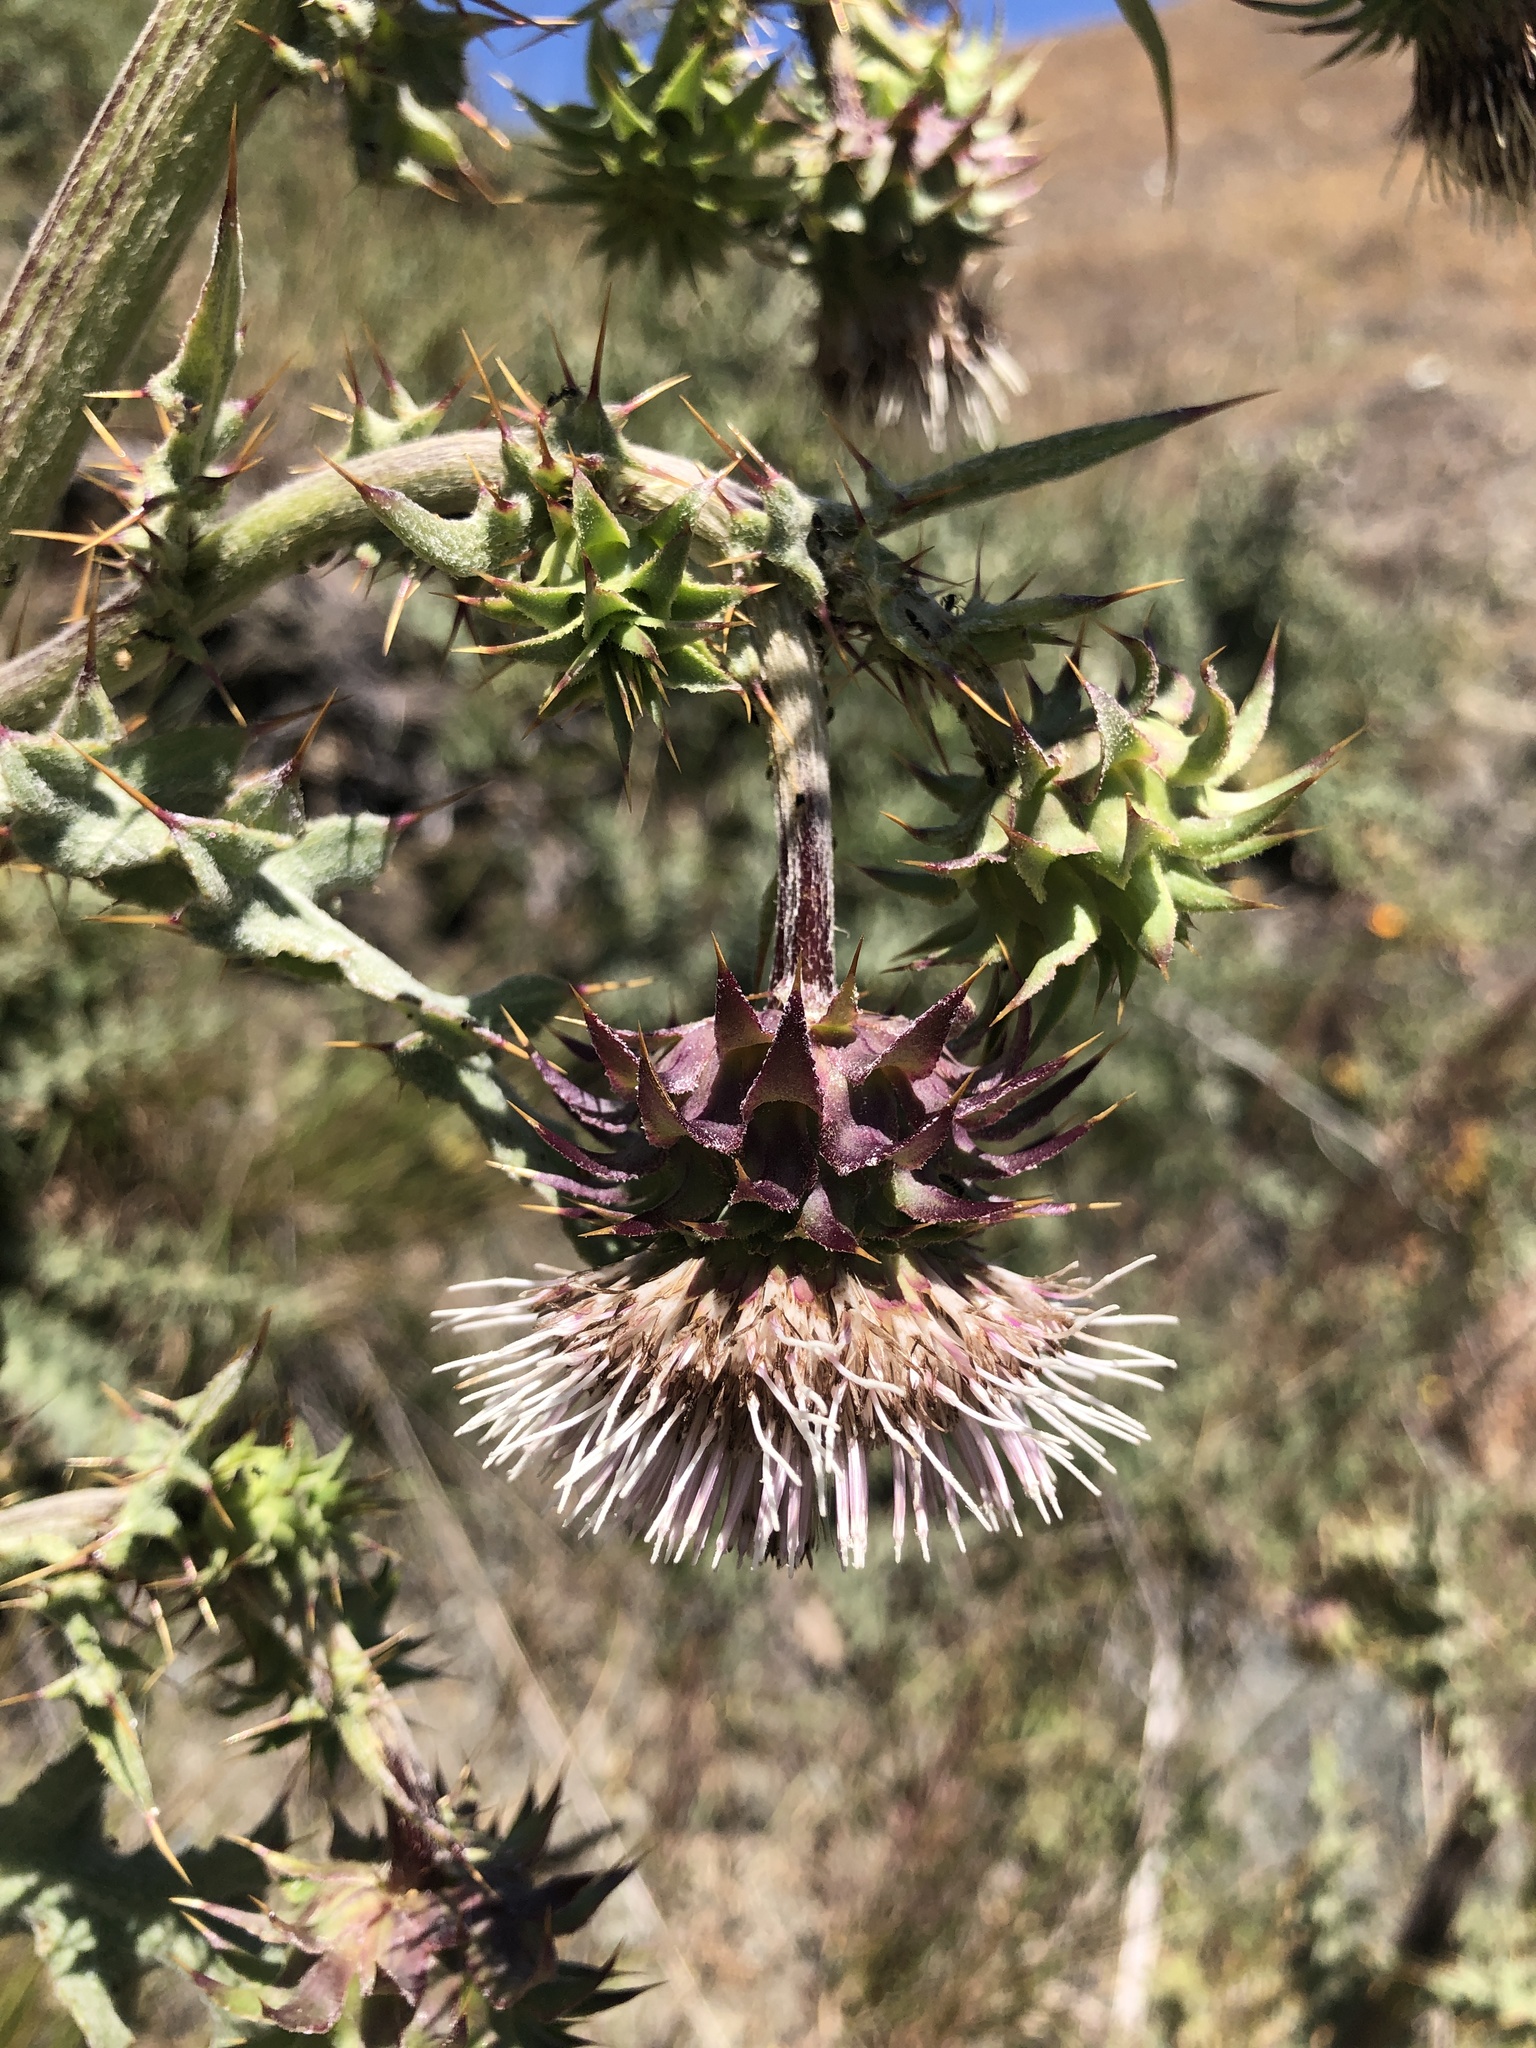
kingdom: Plantae
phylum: Tracheophyta
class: Magnoliopsida
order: Asterales
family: Asteraceae
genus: Cirsium
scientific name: Cirsium fontinale
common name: Fountain thistle
